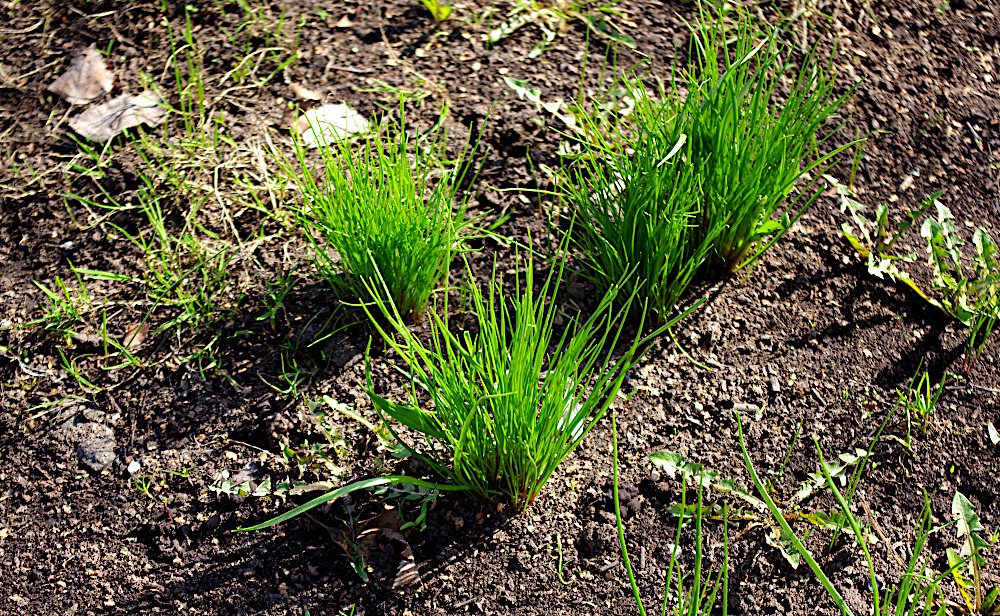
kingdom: Plantae
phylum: Tracheophyta
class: Liliopsida
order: Liliales
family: Liliaceae
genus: Gagea
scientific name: Gagea minima
